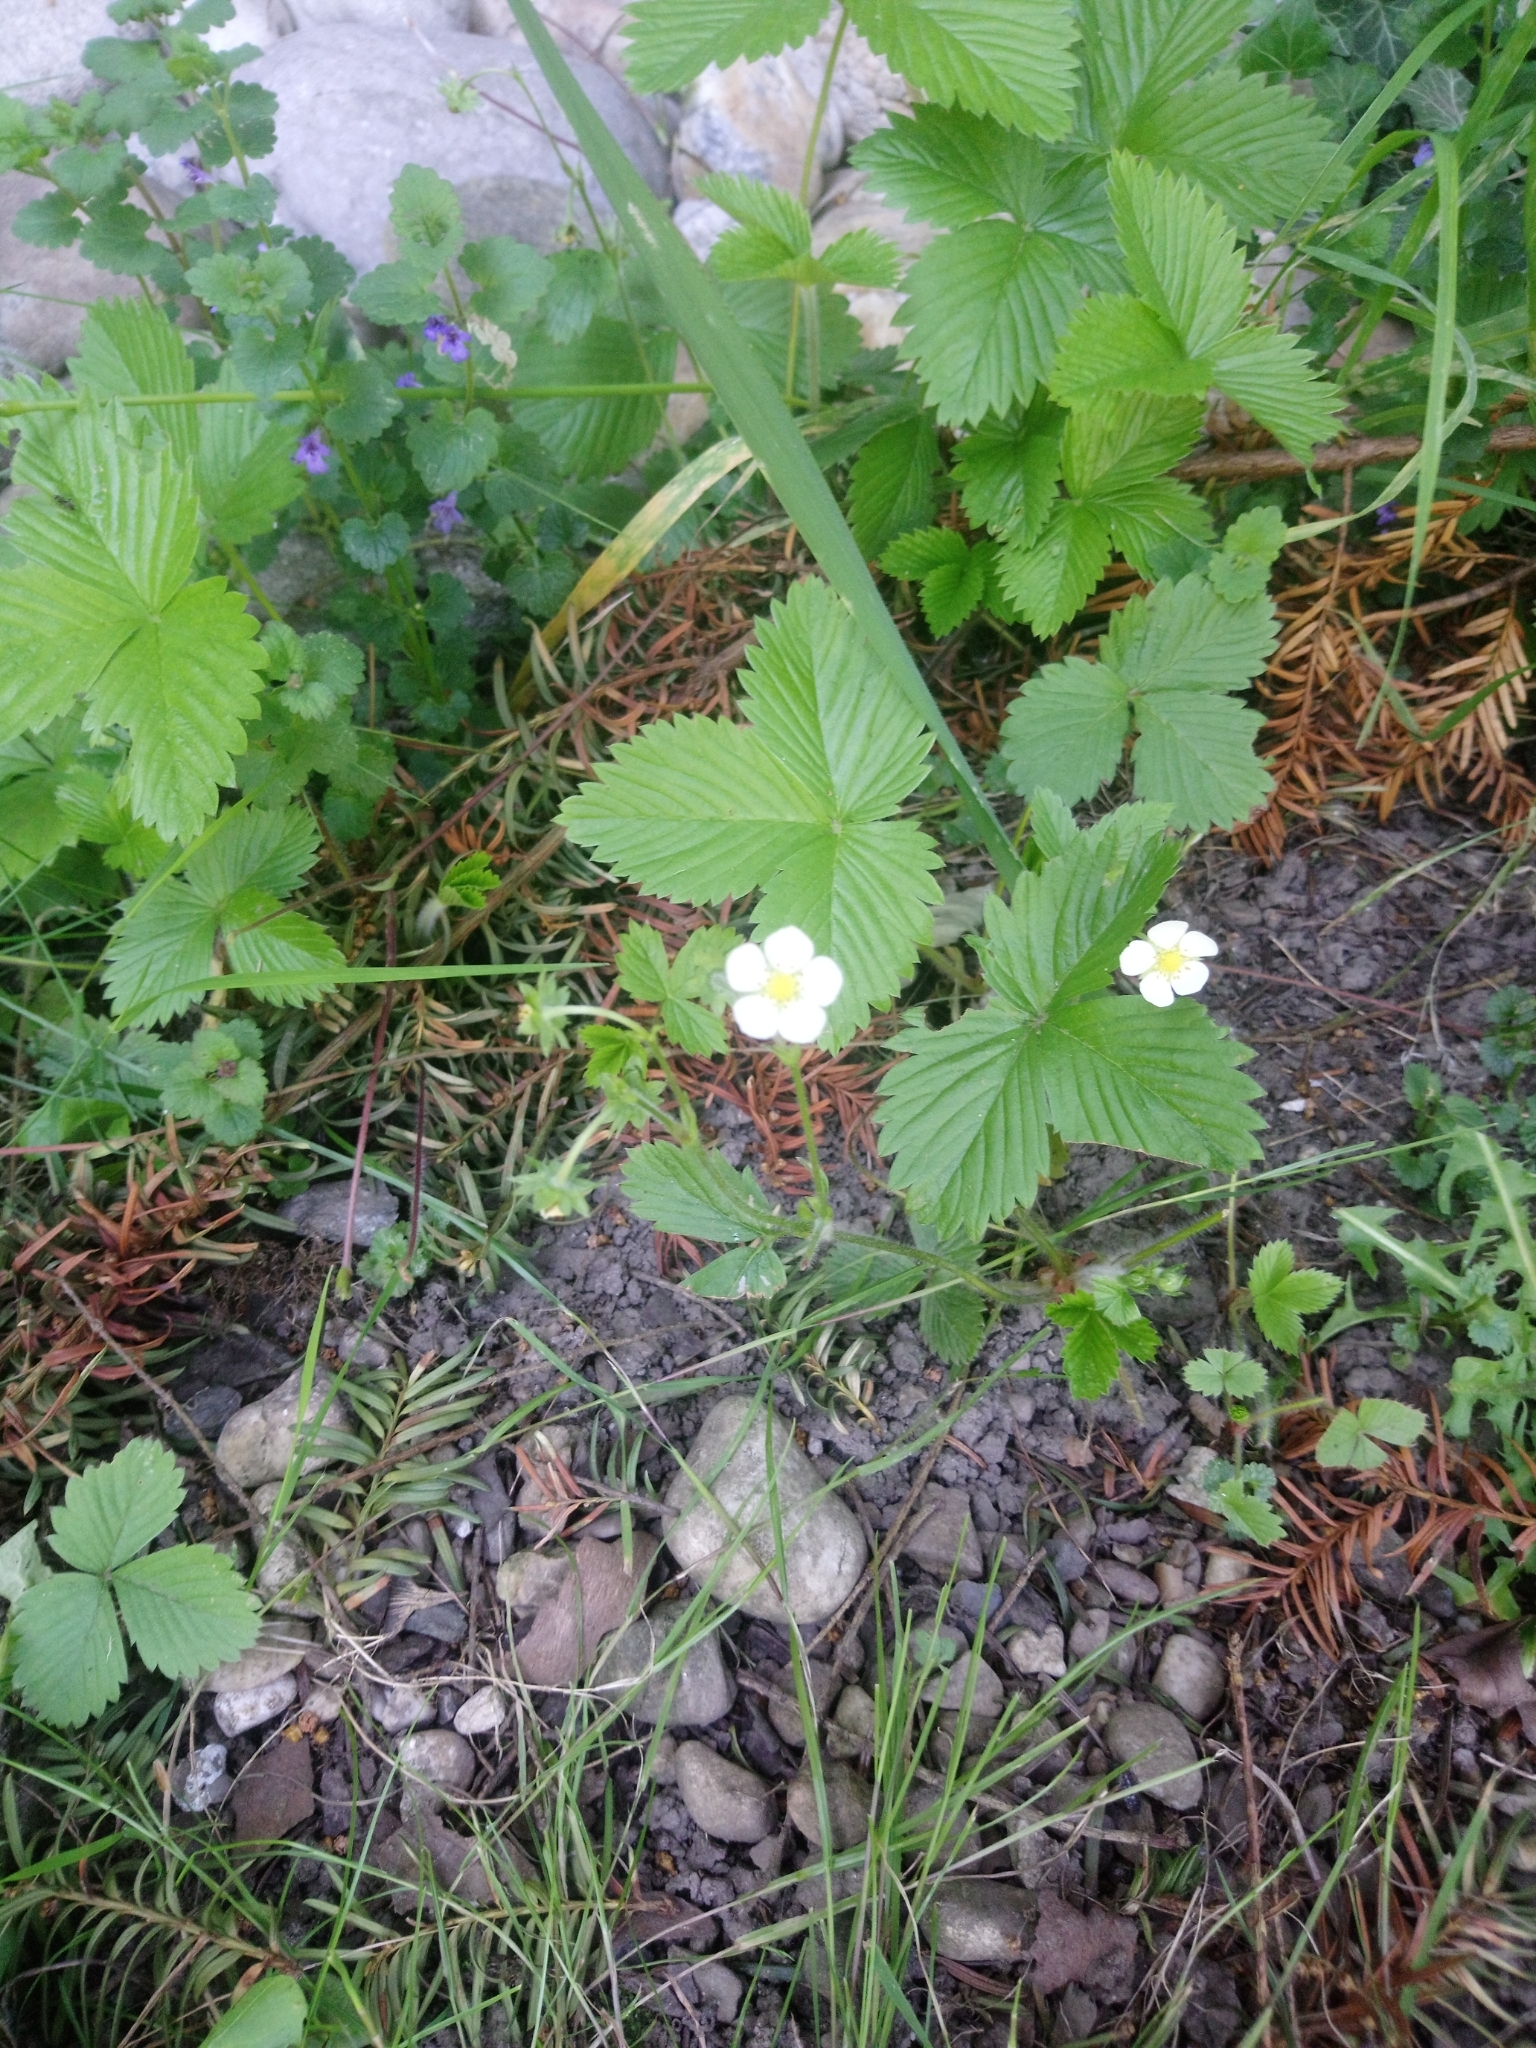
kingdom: Plantae
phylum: Tracheophyta
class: Magnoliopsida
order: Rosales
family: Rosaceae
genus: Fragaria
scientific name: Fragaria vesca
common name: Wild strawberry
